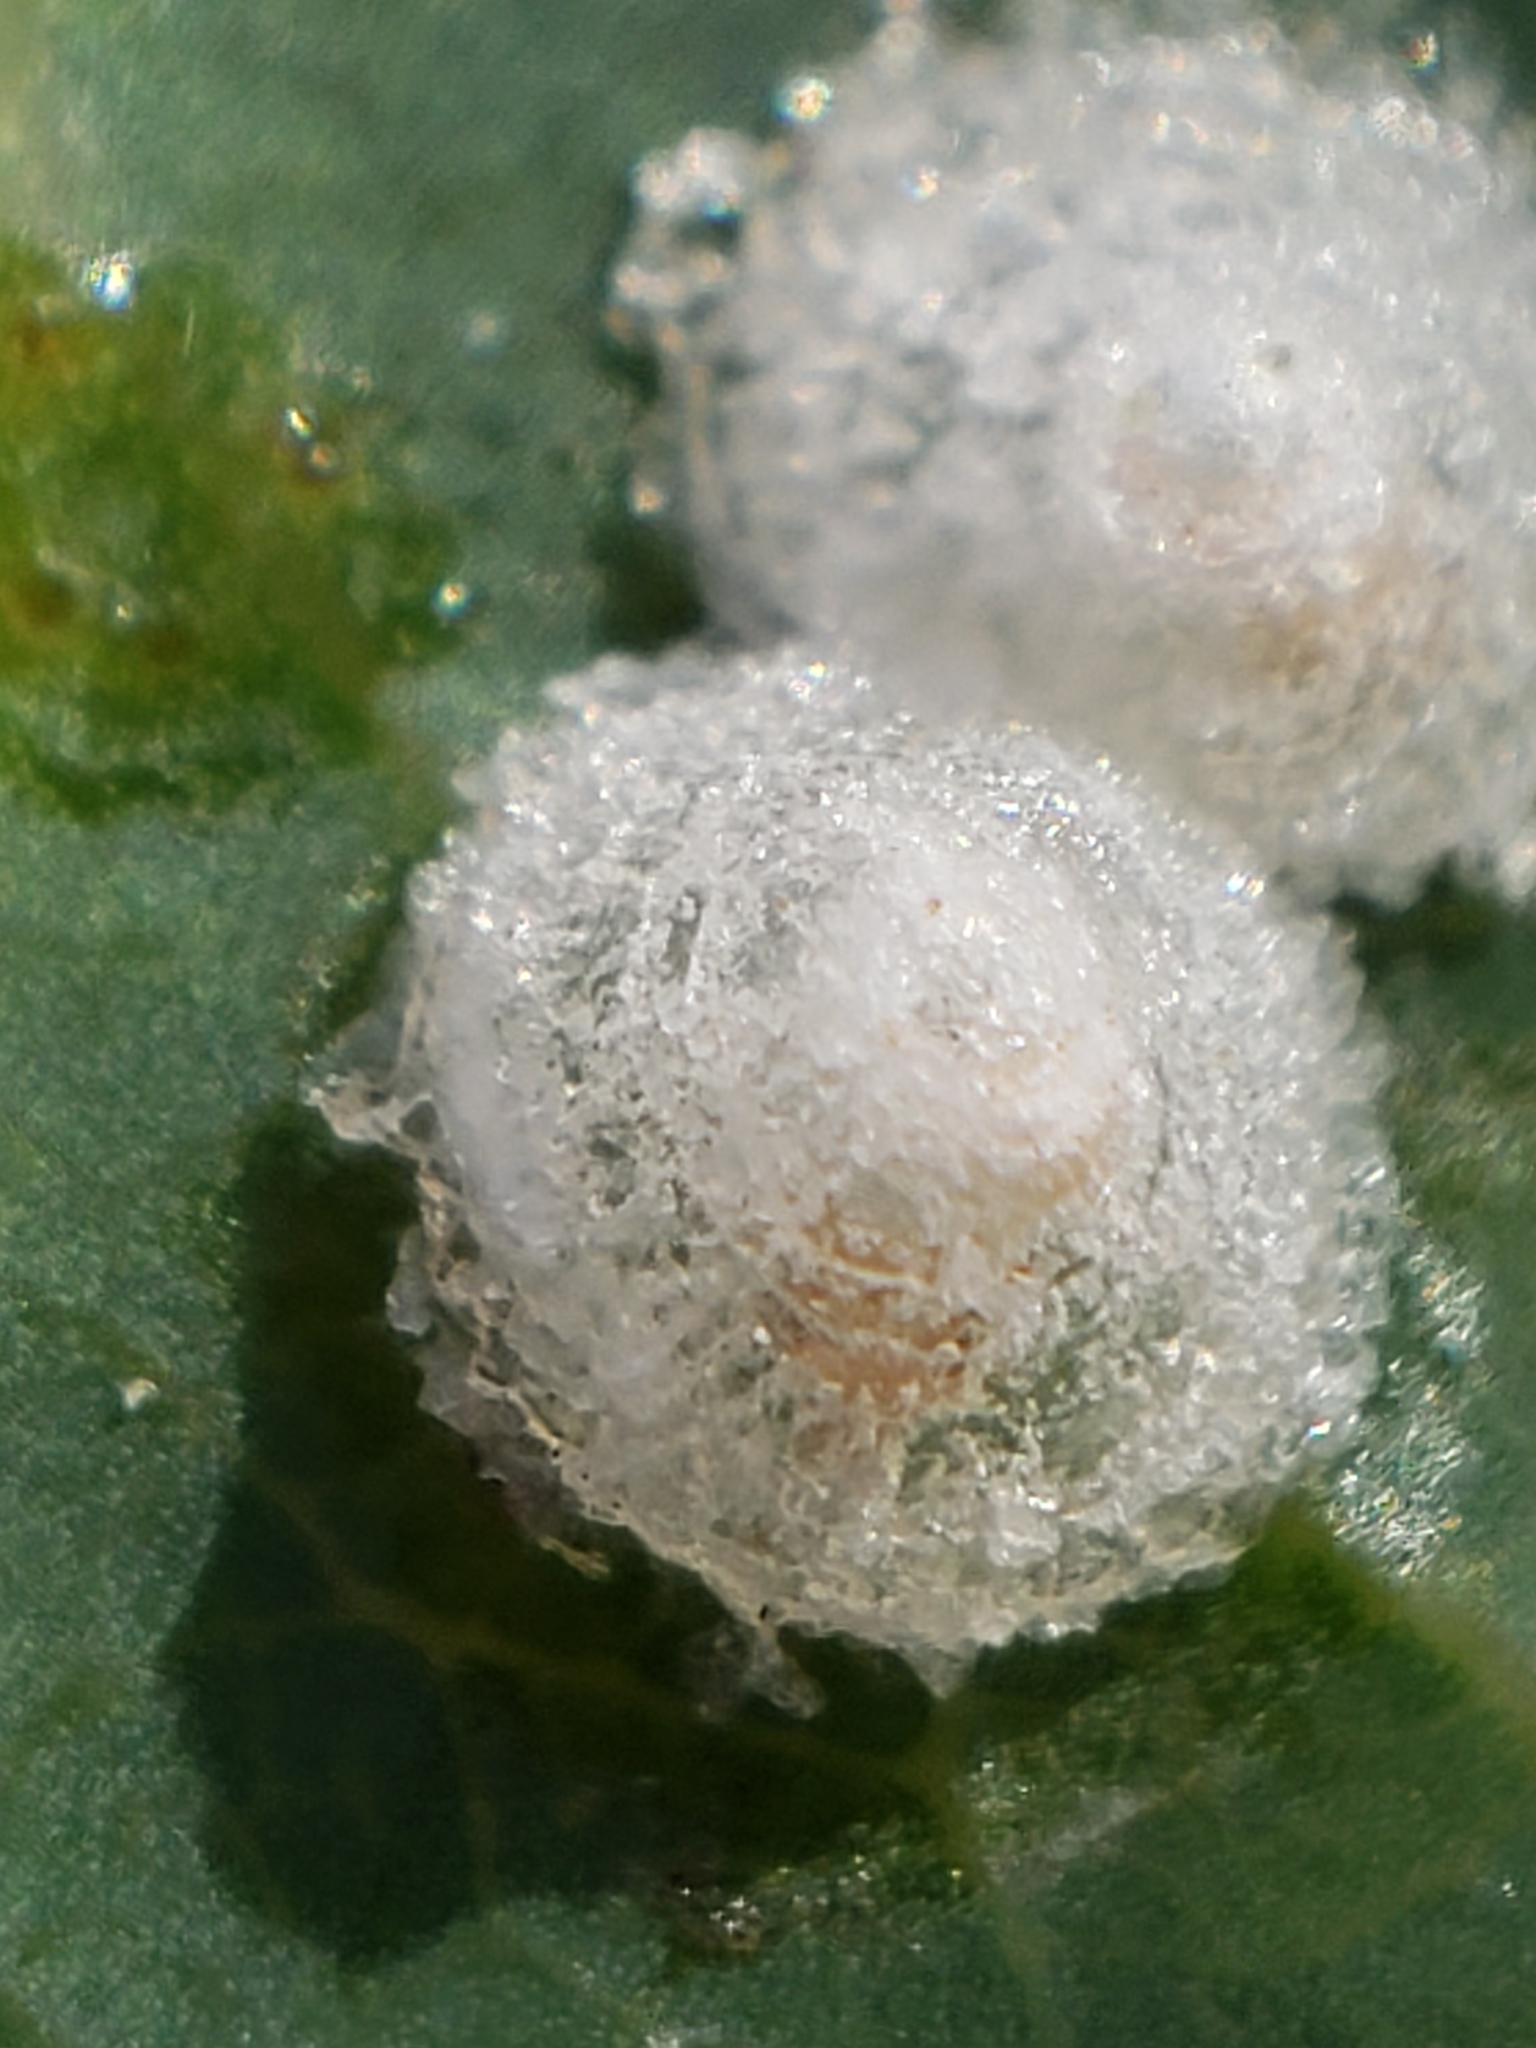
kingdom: Animalia
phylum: Arthropoda
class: Insecta
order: Hemiptera
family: Aphalaridae
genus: Glycaspis
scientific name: Glycaspis brimblecombei
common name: Red gum lerp psyllid
